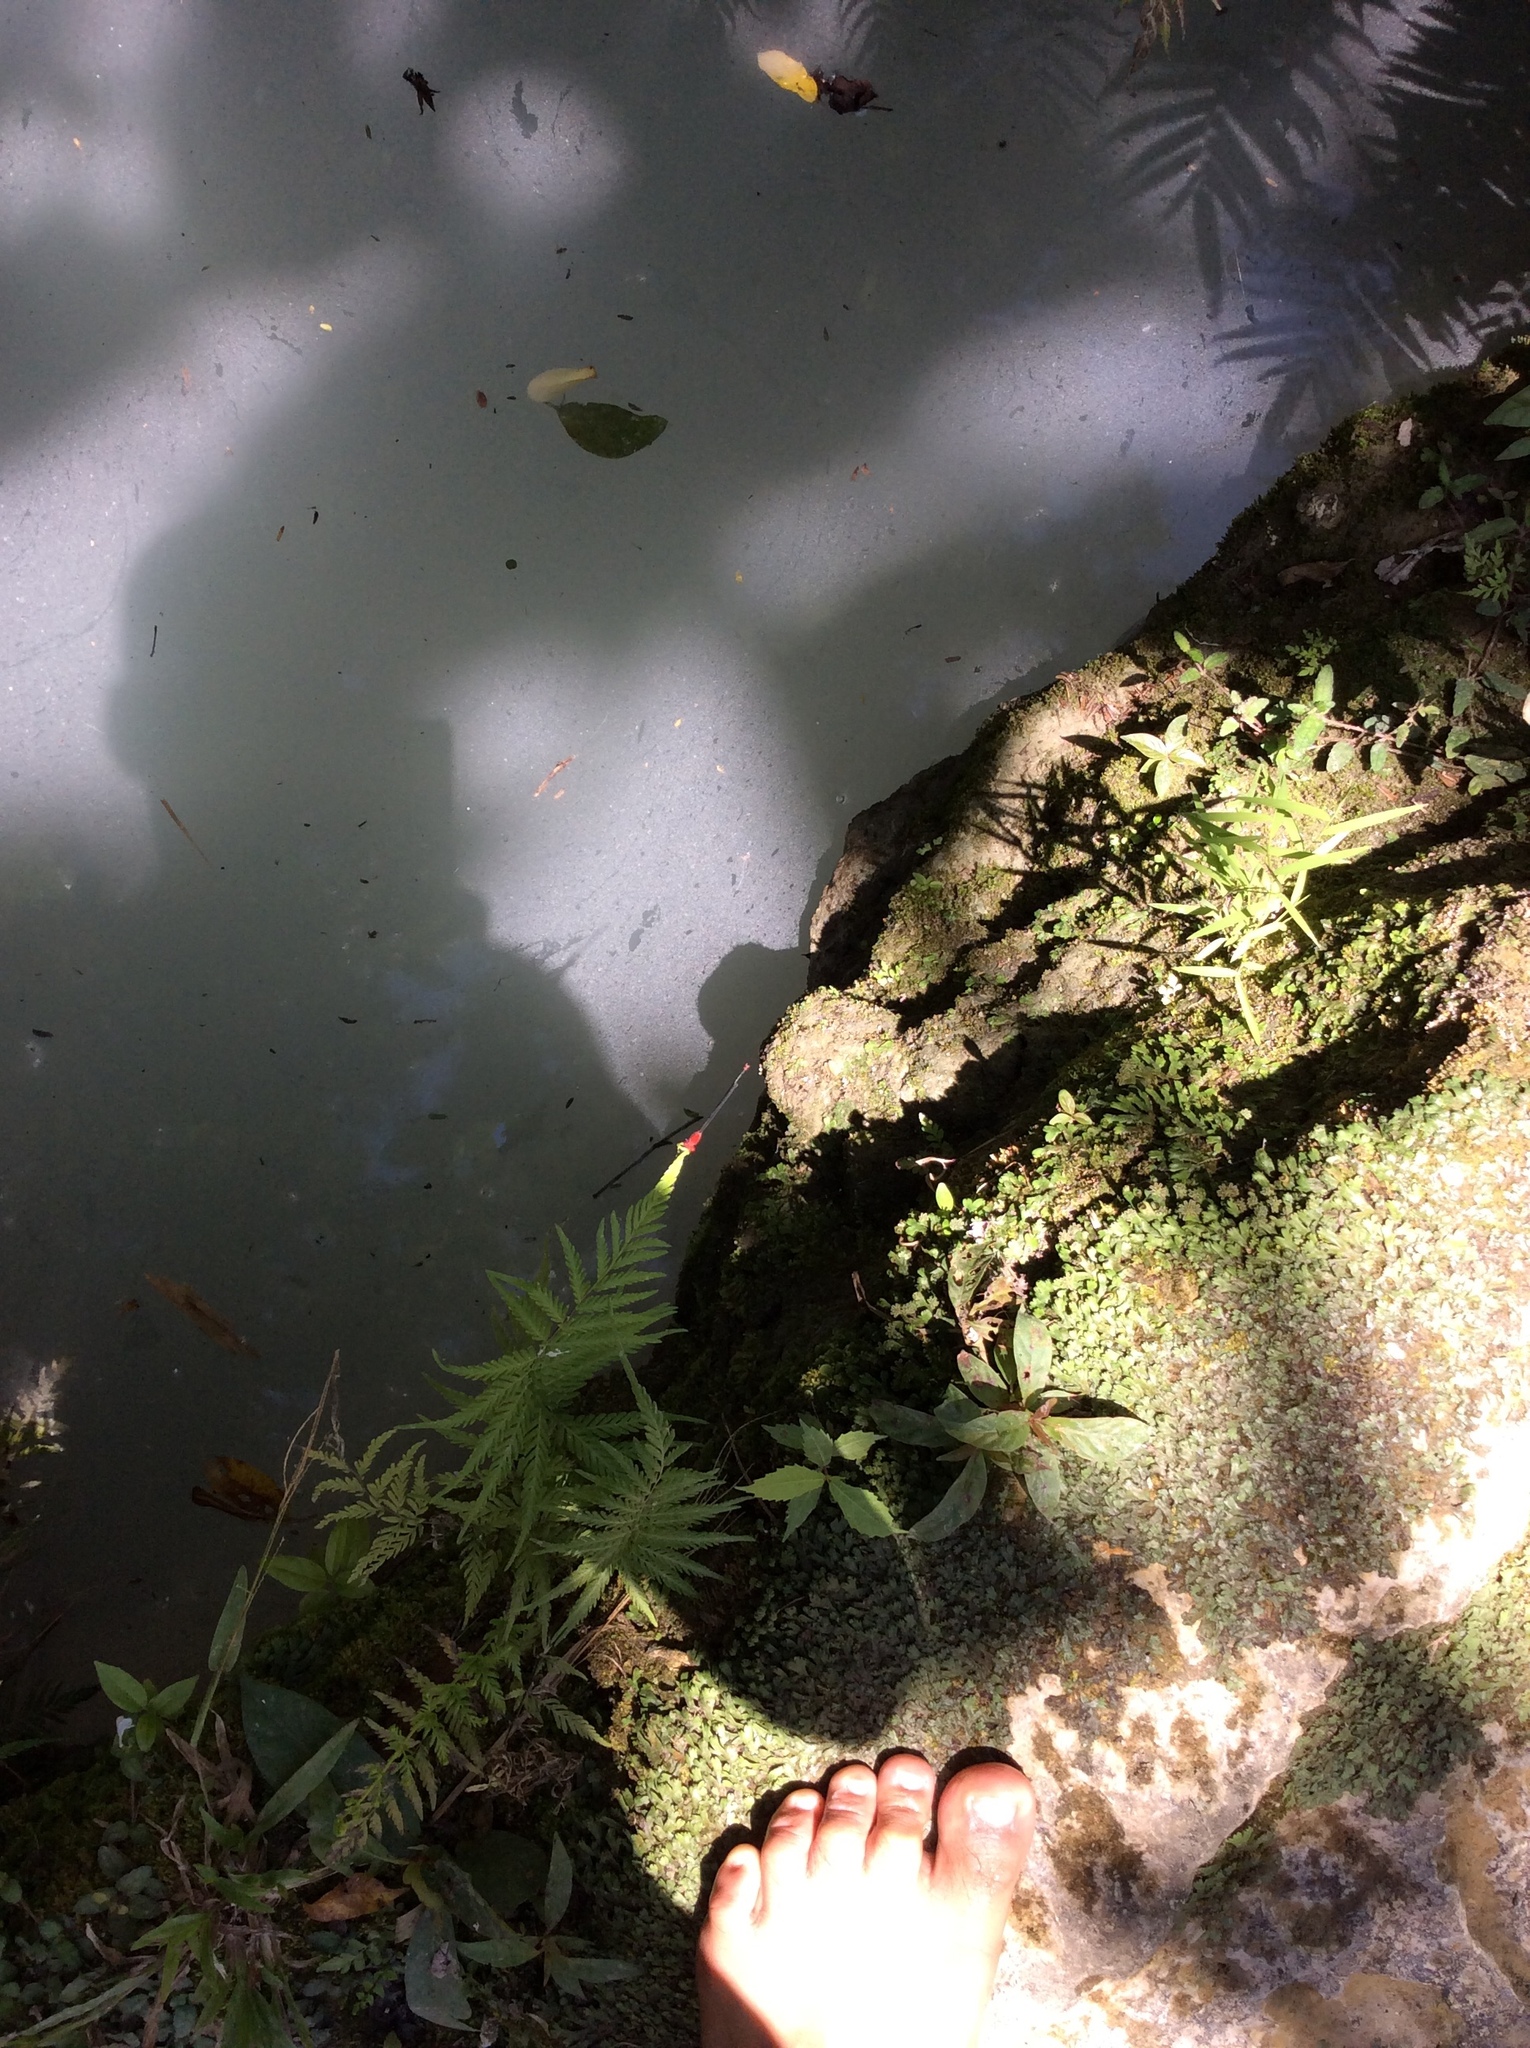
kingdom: Animalia
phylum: Arthropoda
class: Insecta
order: Odonata
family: Coenagrionidae
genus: Pseudagrion
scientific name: Pseudagrion pilidorsum
